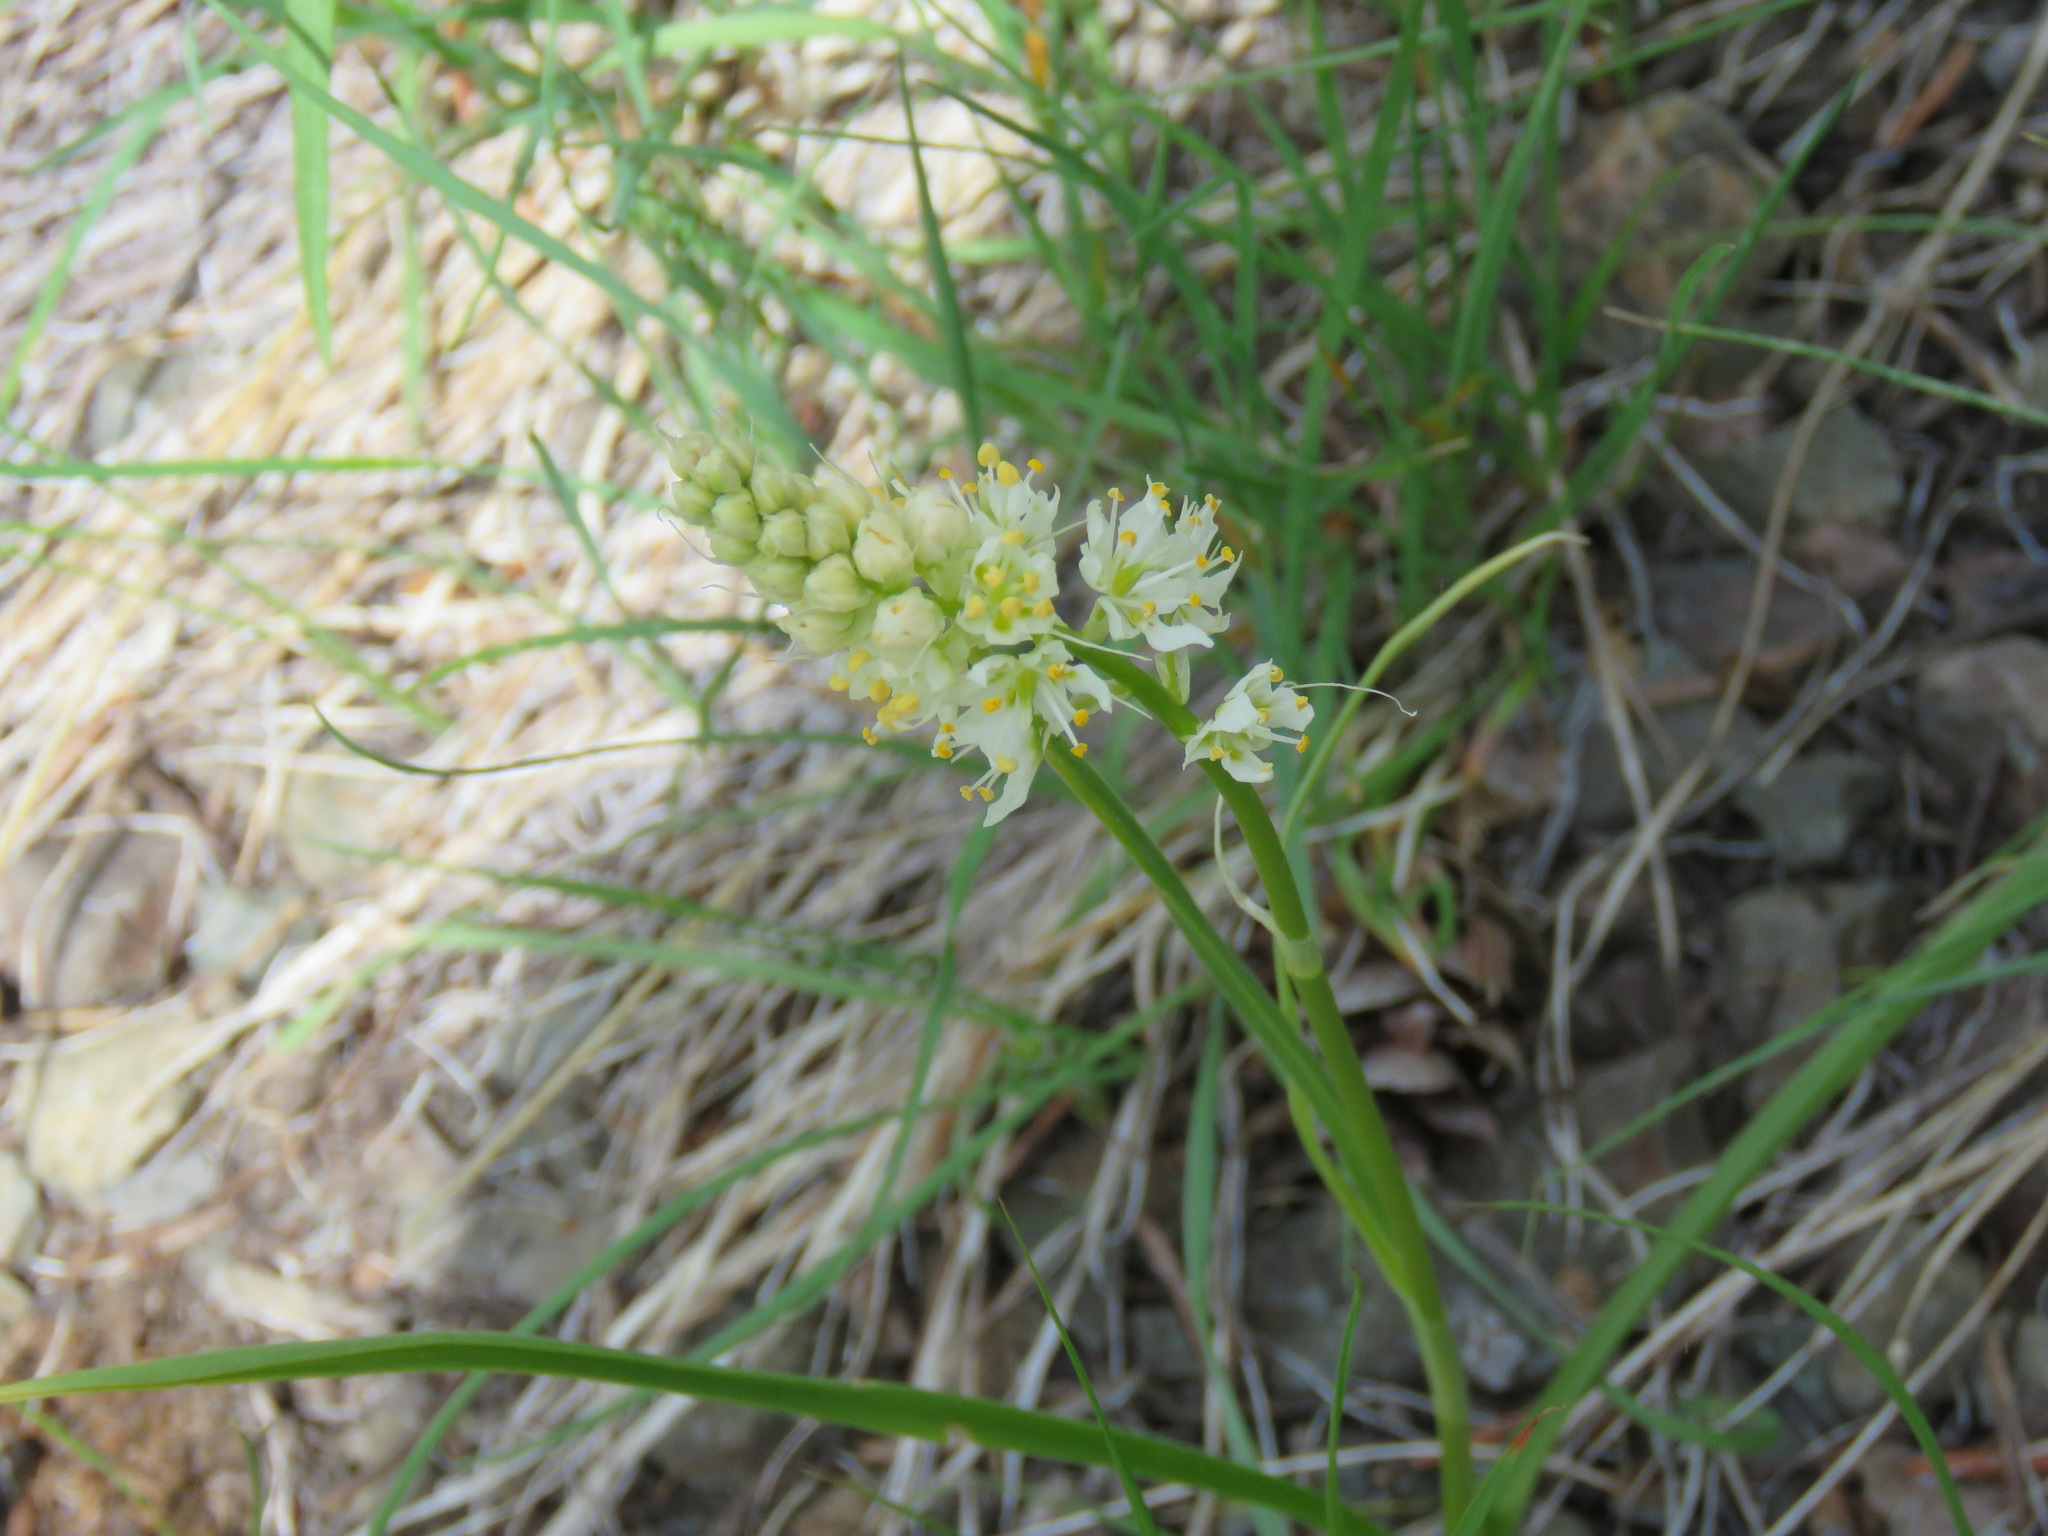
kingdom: Plantae
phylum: Tracheophyta
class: Liliopsida
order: Liliales
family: Melanthiaceae
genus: Toxicoscordion
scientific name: Toxicoscordion venenosum
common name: Meadow death camas
